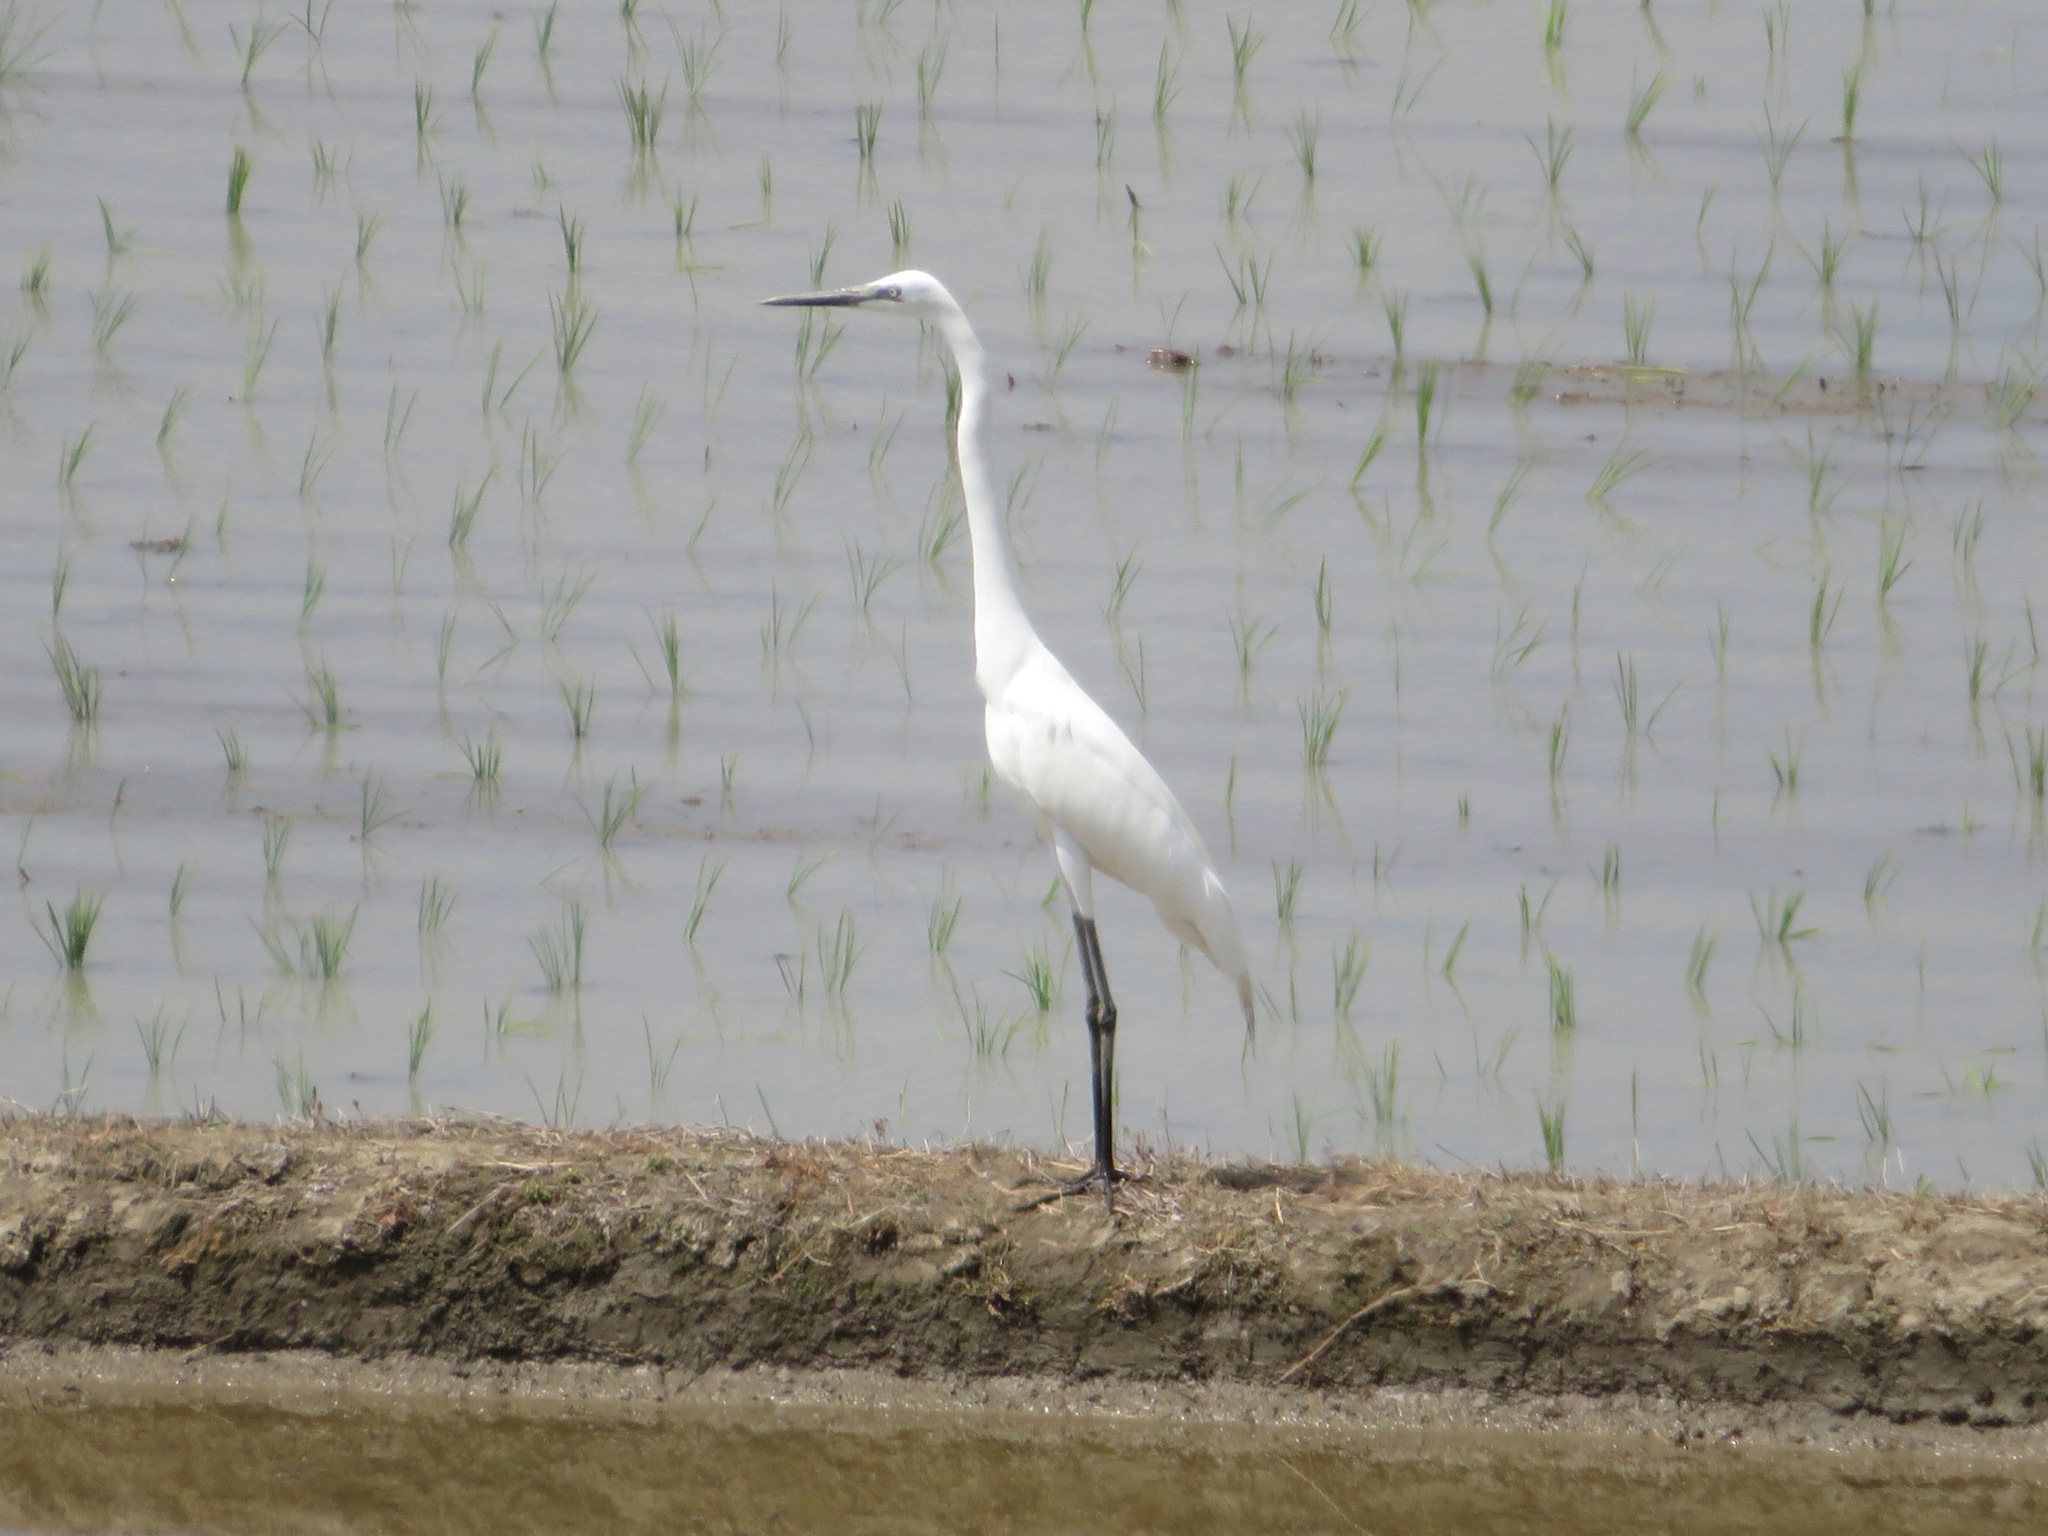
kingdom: Animalia
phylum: Chordata
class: Aves
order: Pelecaniformes
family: Ardeidae
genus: Ardea
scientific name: Ardea alba
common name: Great egret
